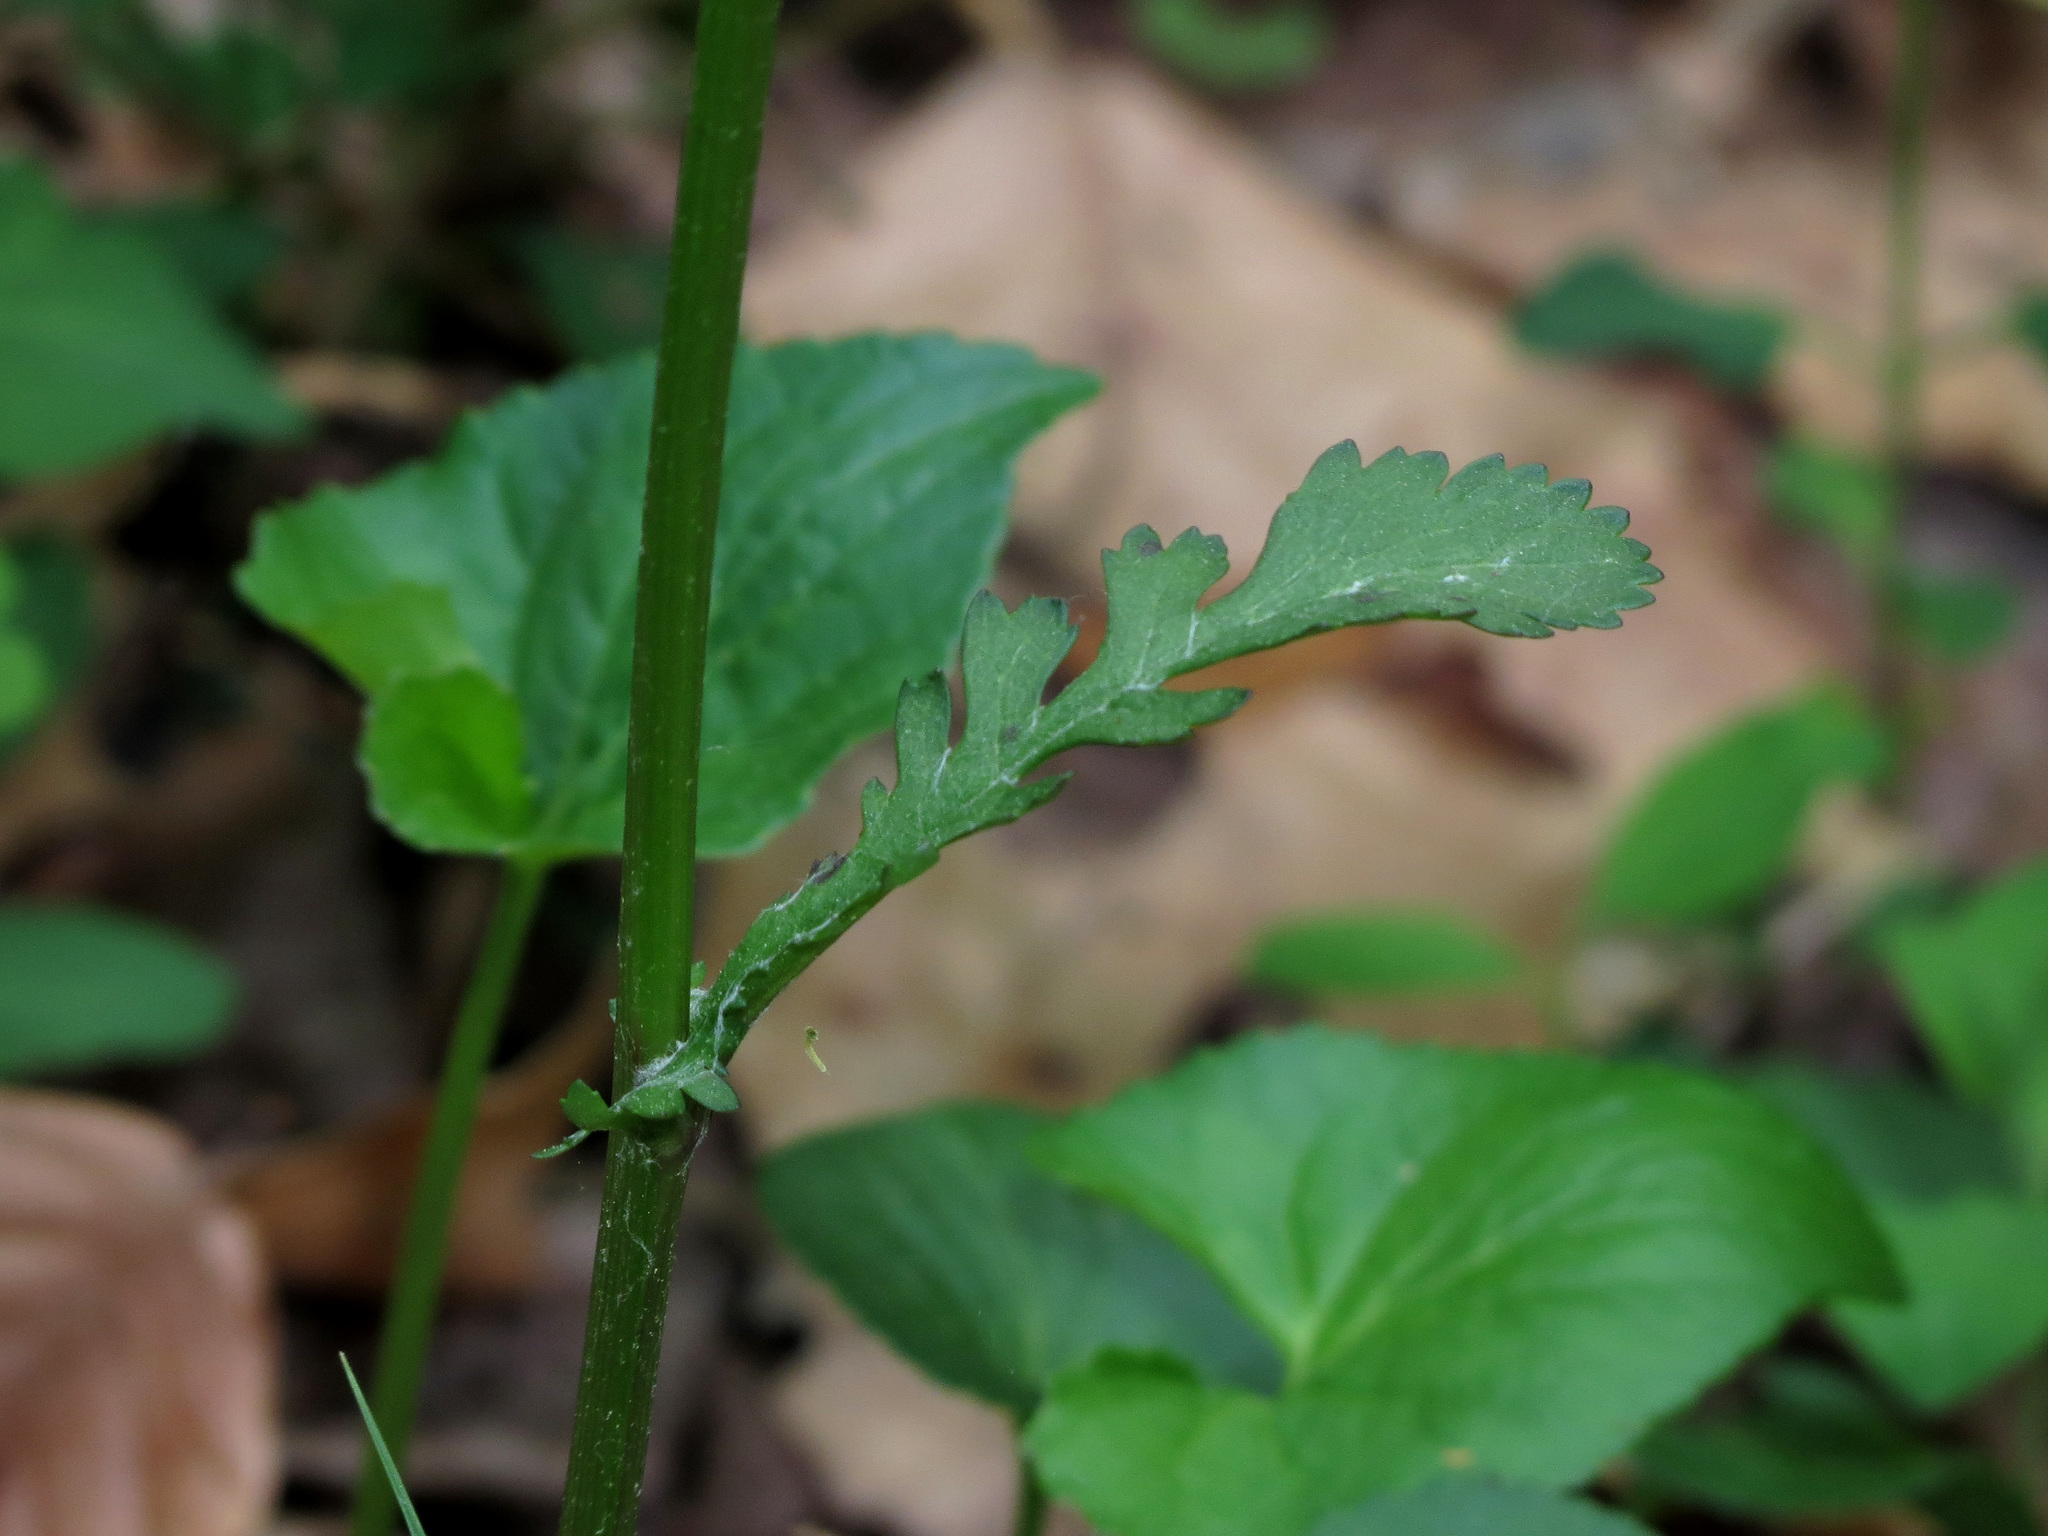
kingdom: Plantae
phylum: Tracheophyta
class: Magnoliopsida
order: Asterales
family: Asteraceae
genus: Packera
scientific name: Packera aurea
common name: Golden groundsel
